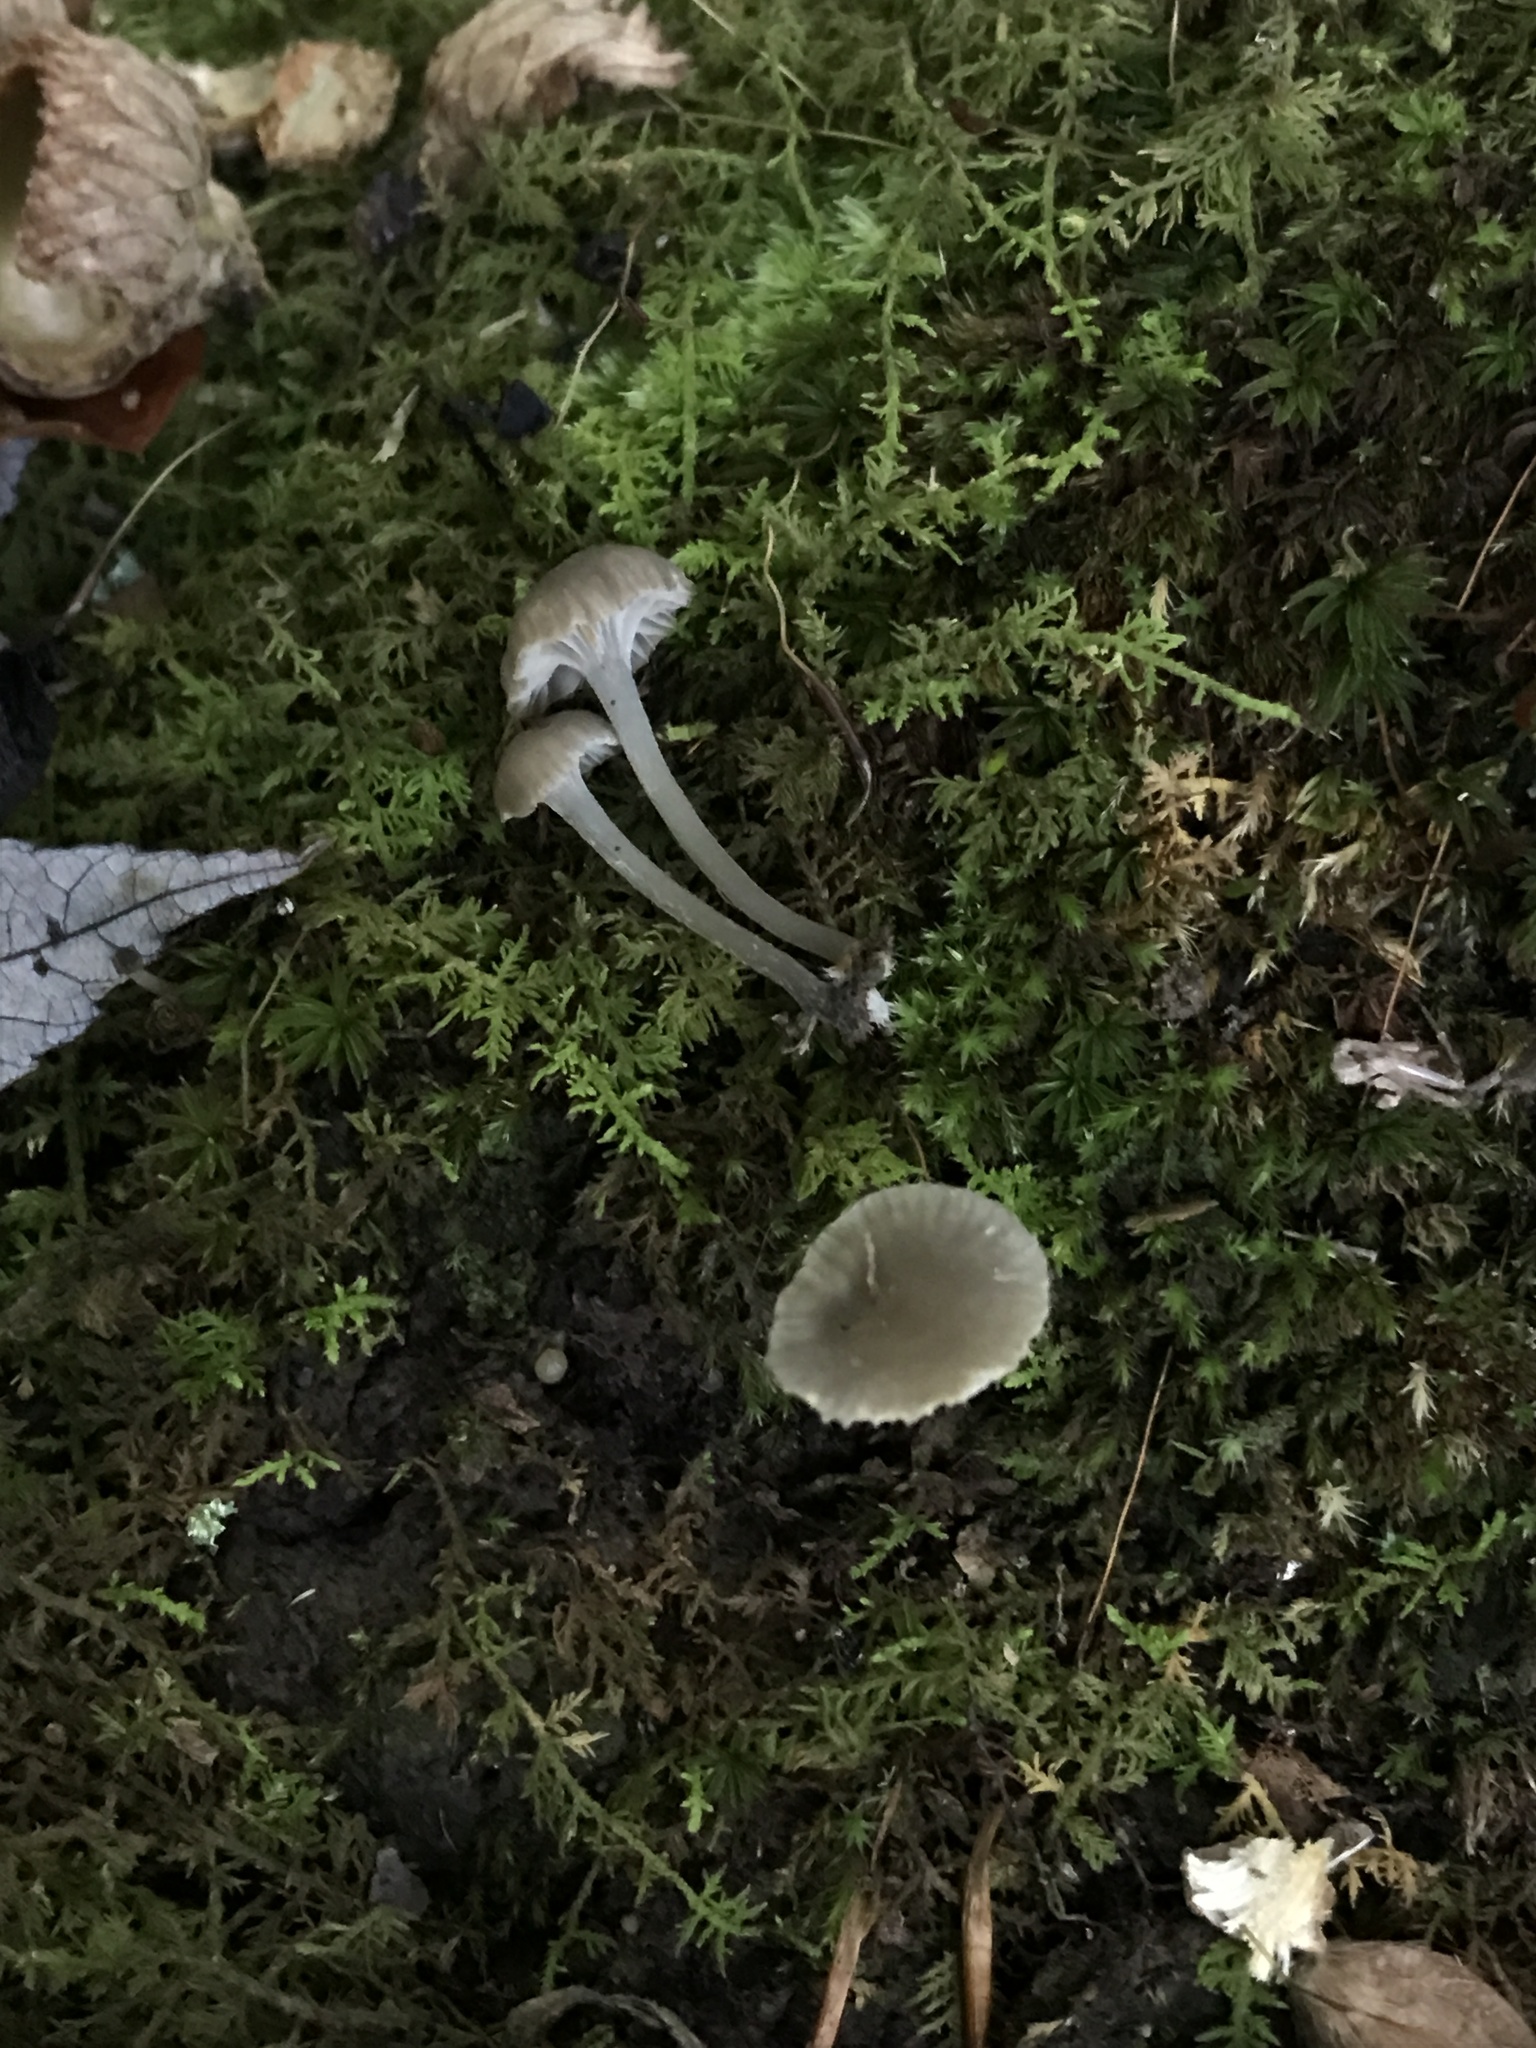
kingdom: Fungi
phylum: Basidiomycota
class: Agaricomycetes
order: Agaricales
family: Mycenaceae
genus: Hydropus
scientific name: Hydropus praedecurrens
